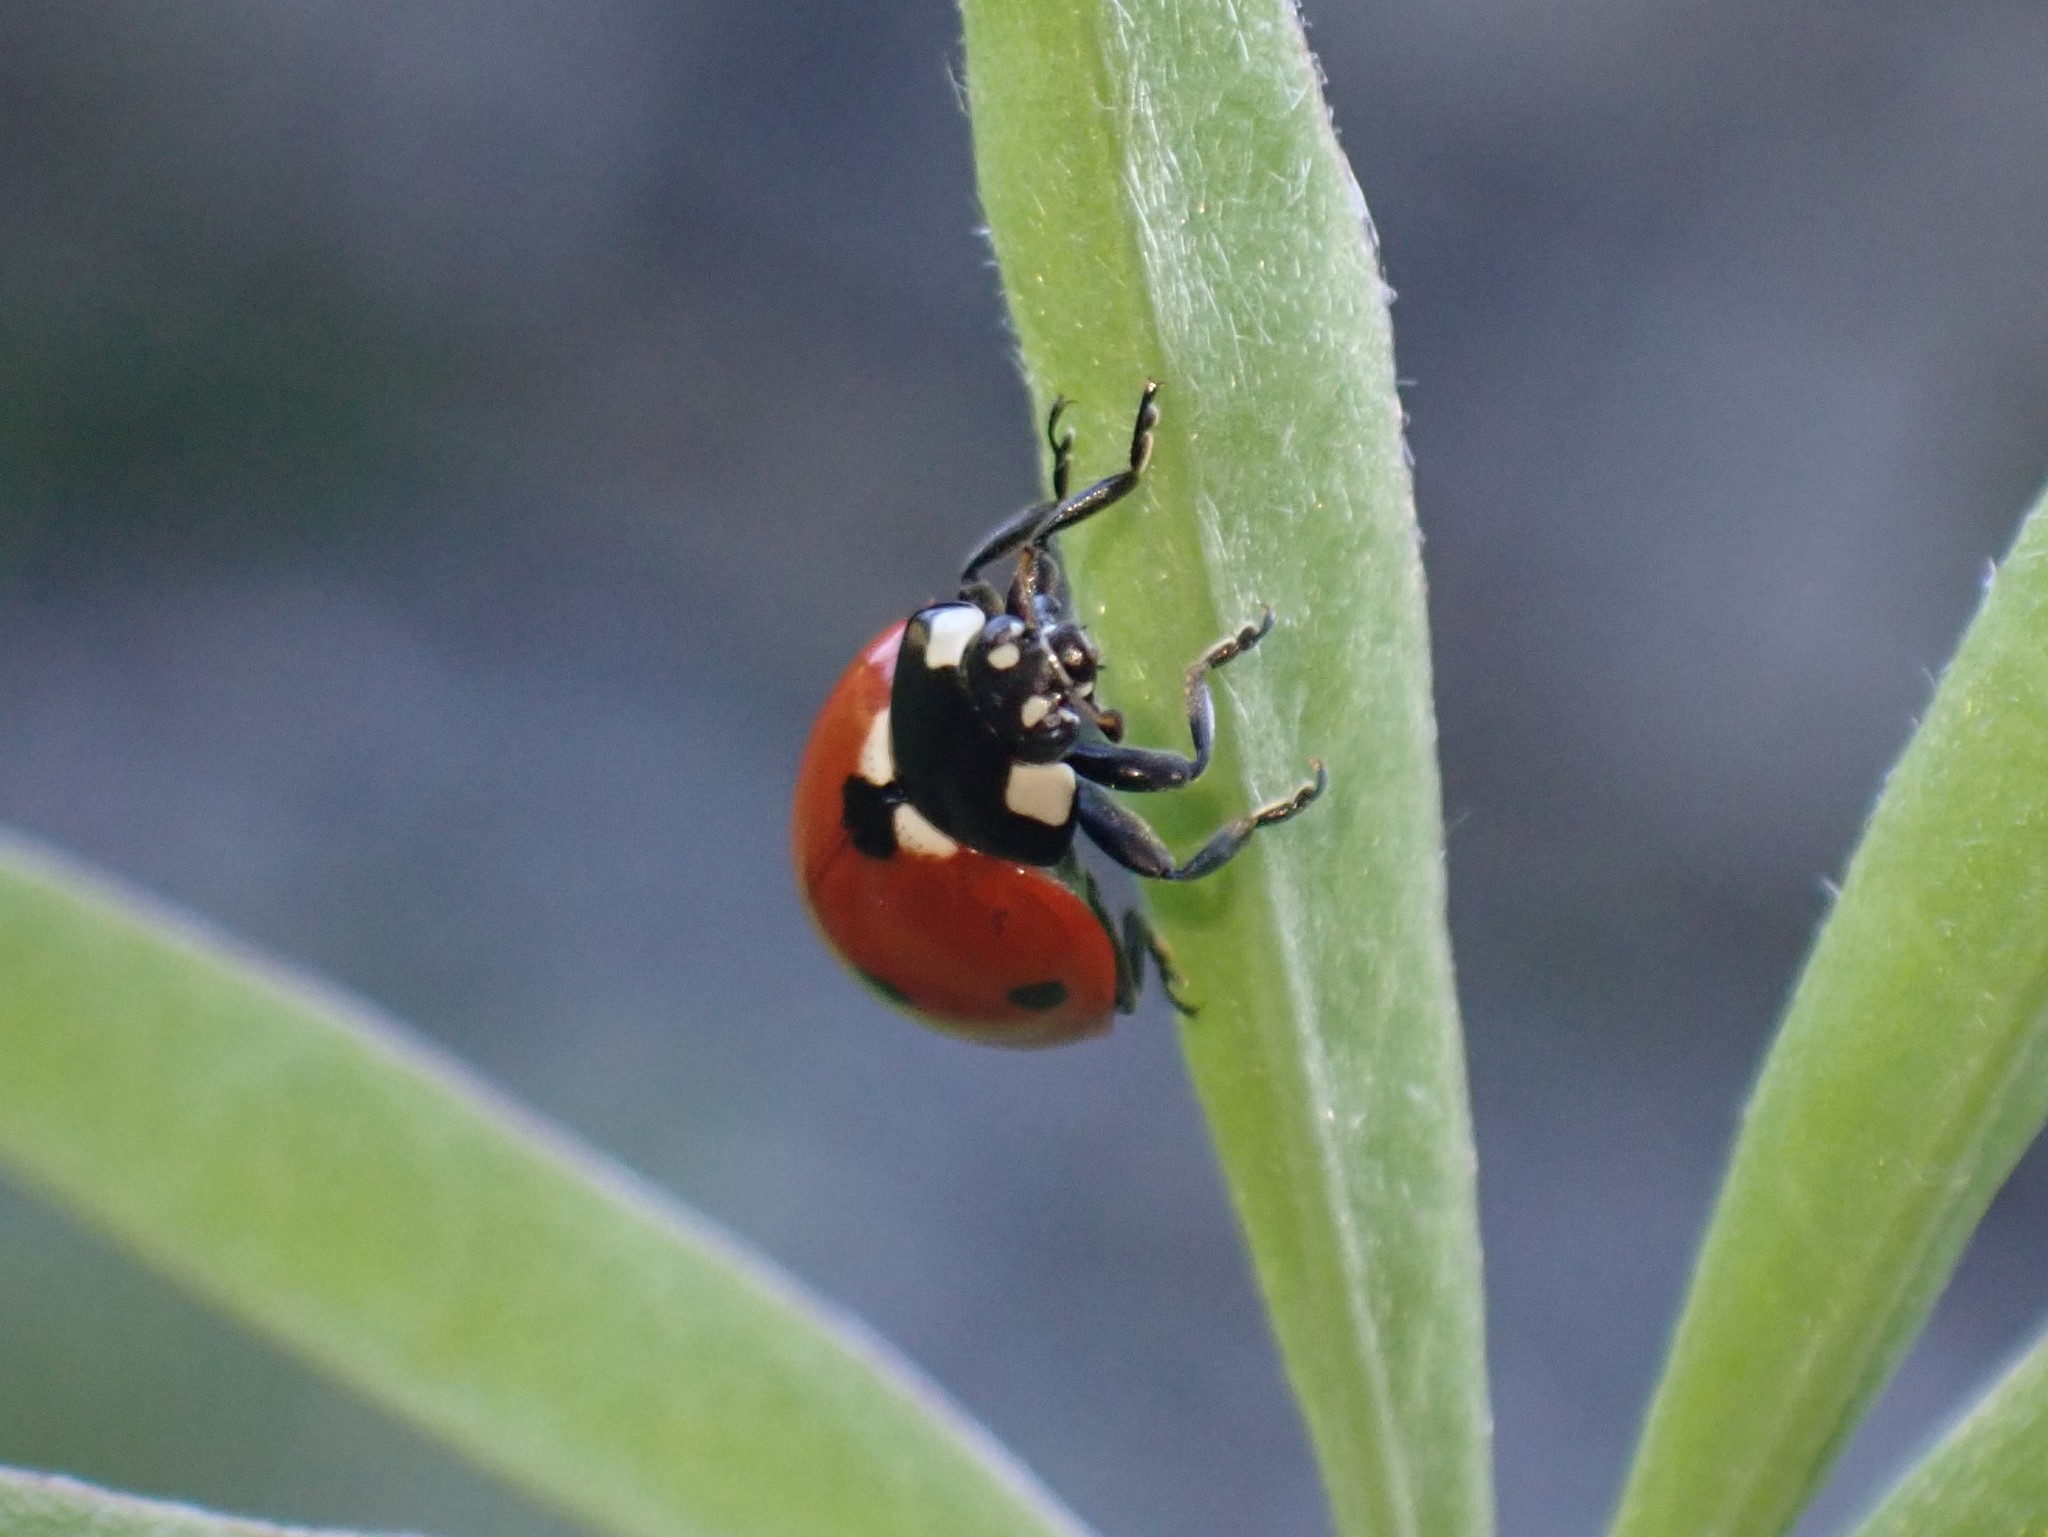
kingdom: Animalia
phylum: Arthropoda
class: Insecta
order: Coleoptera
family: Coccinellidae
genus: Coccinella
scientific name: Coccinella septempunctata
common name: Sevenspotted lady beetle
